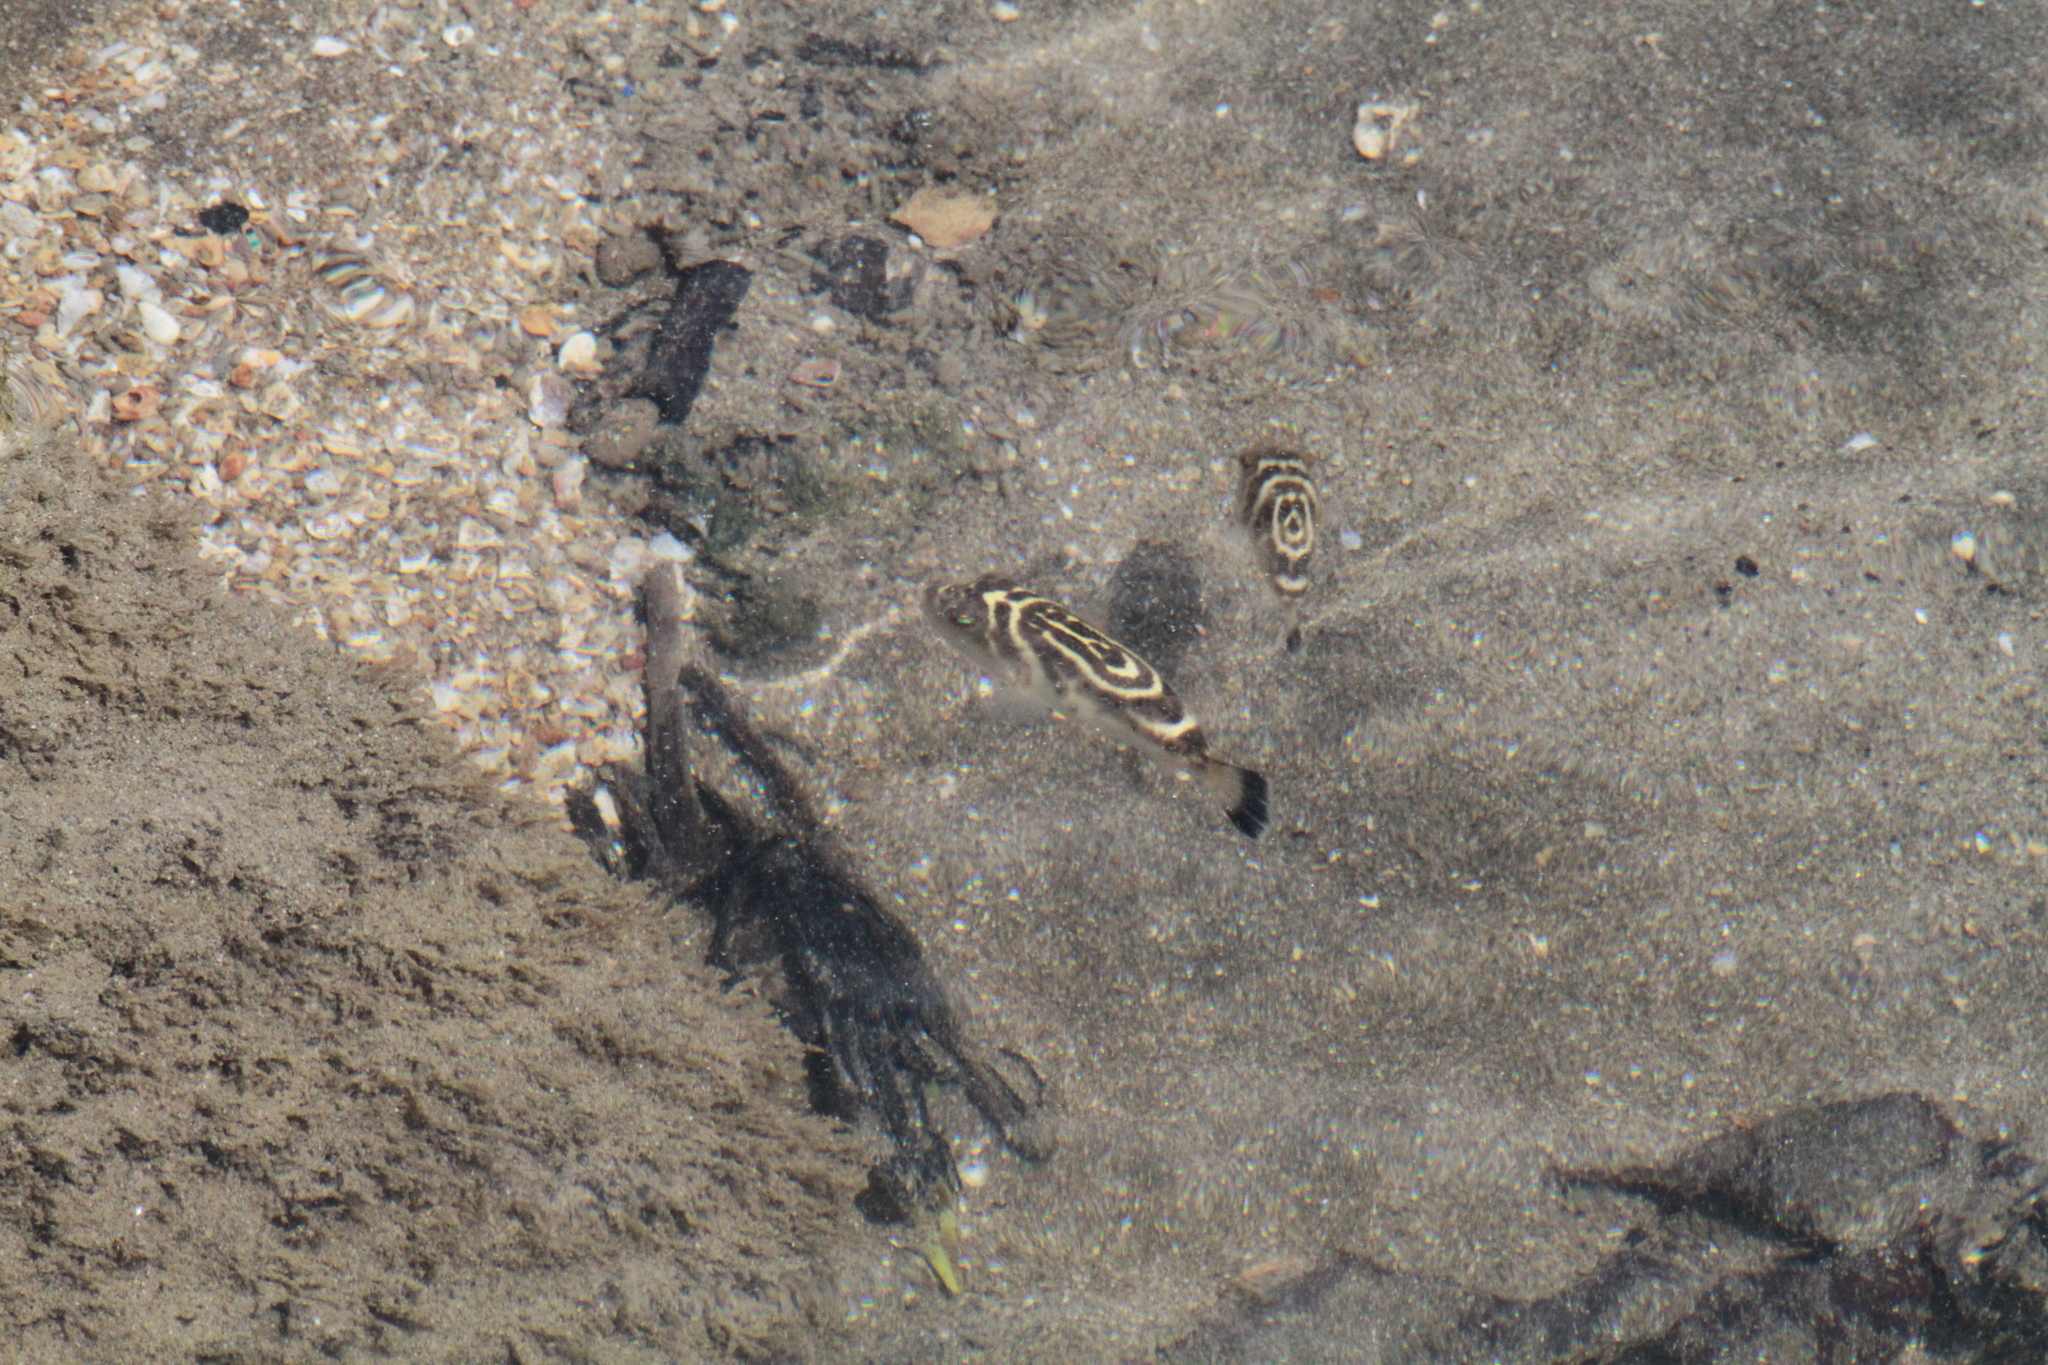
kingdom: Animalia
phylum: Chordata
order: Tetraodontiformes
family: Tetraodontidae
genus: Sphoeroides
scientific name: Sphoeroides annulatus
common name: Bullseye puffer
